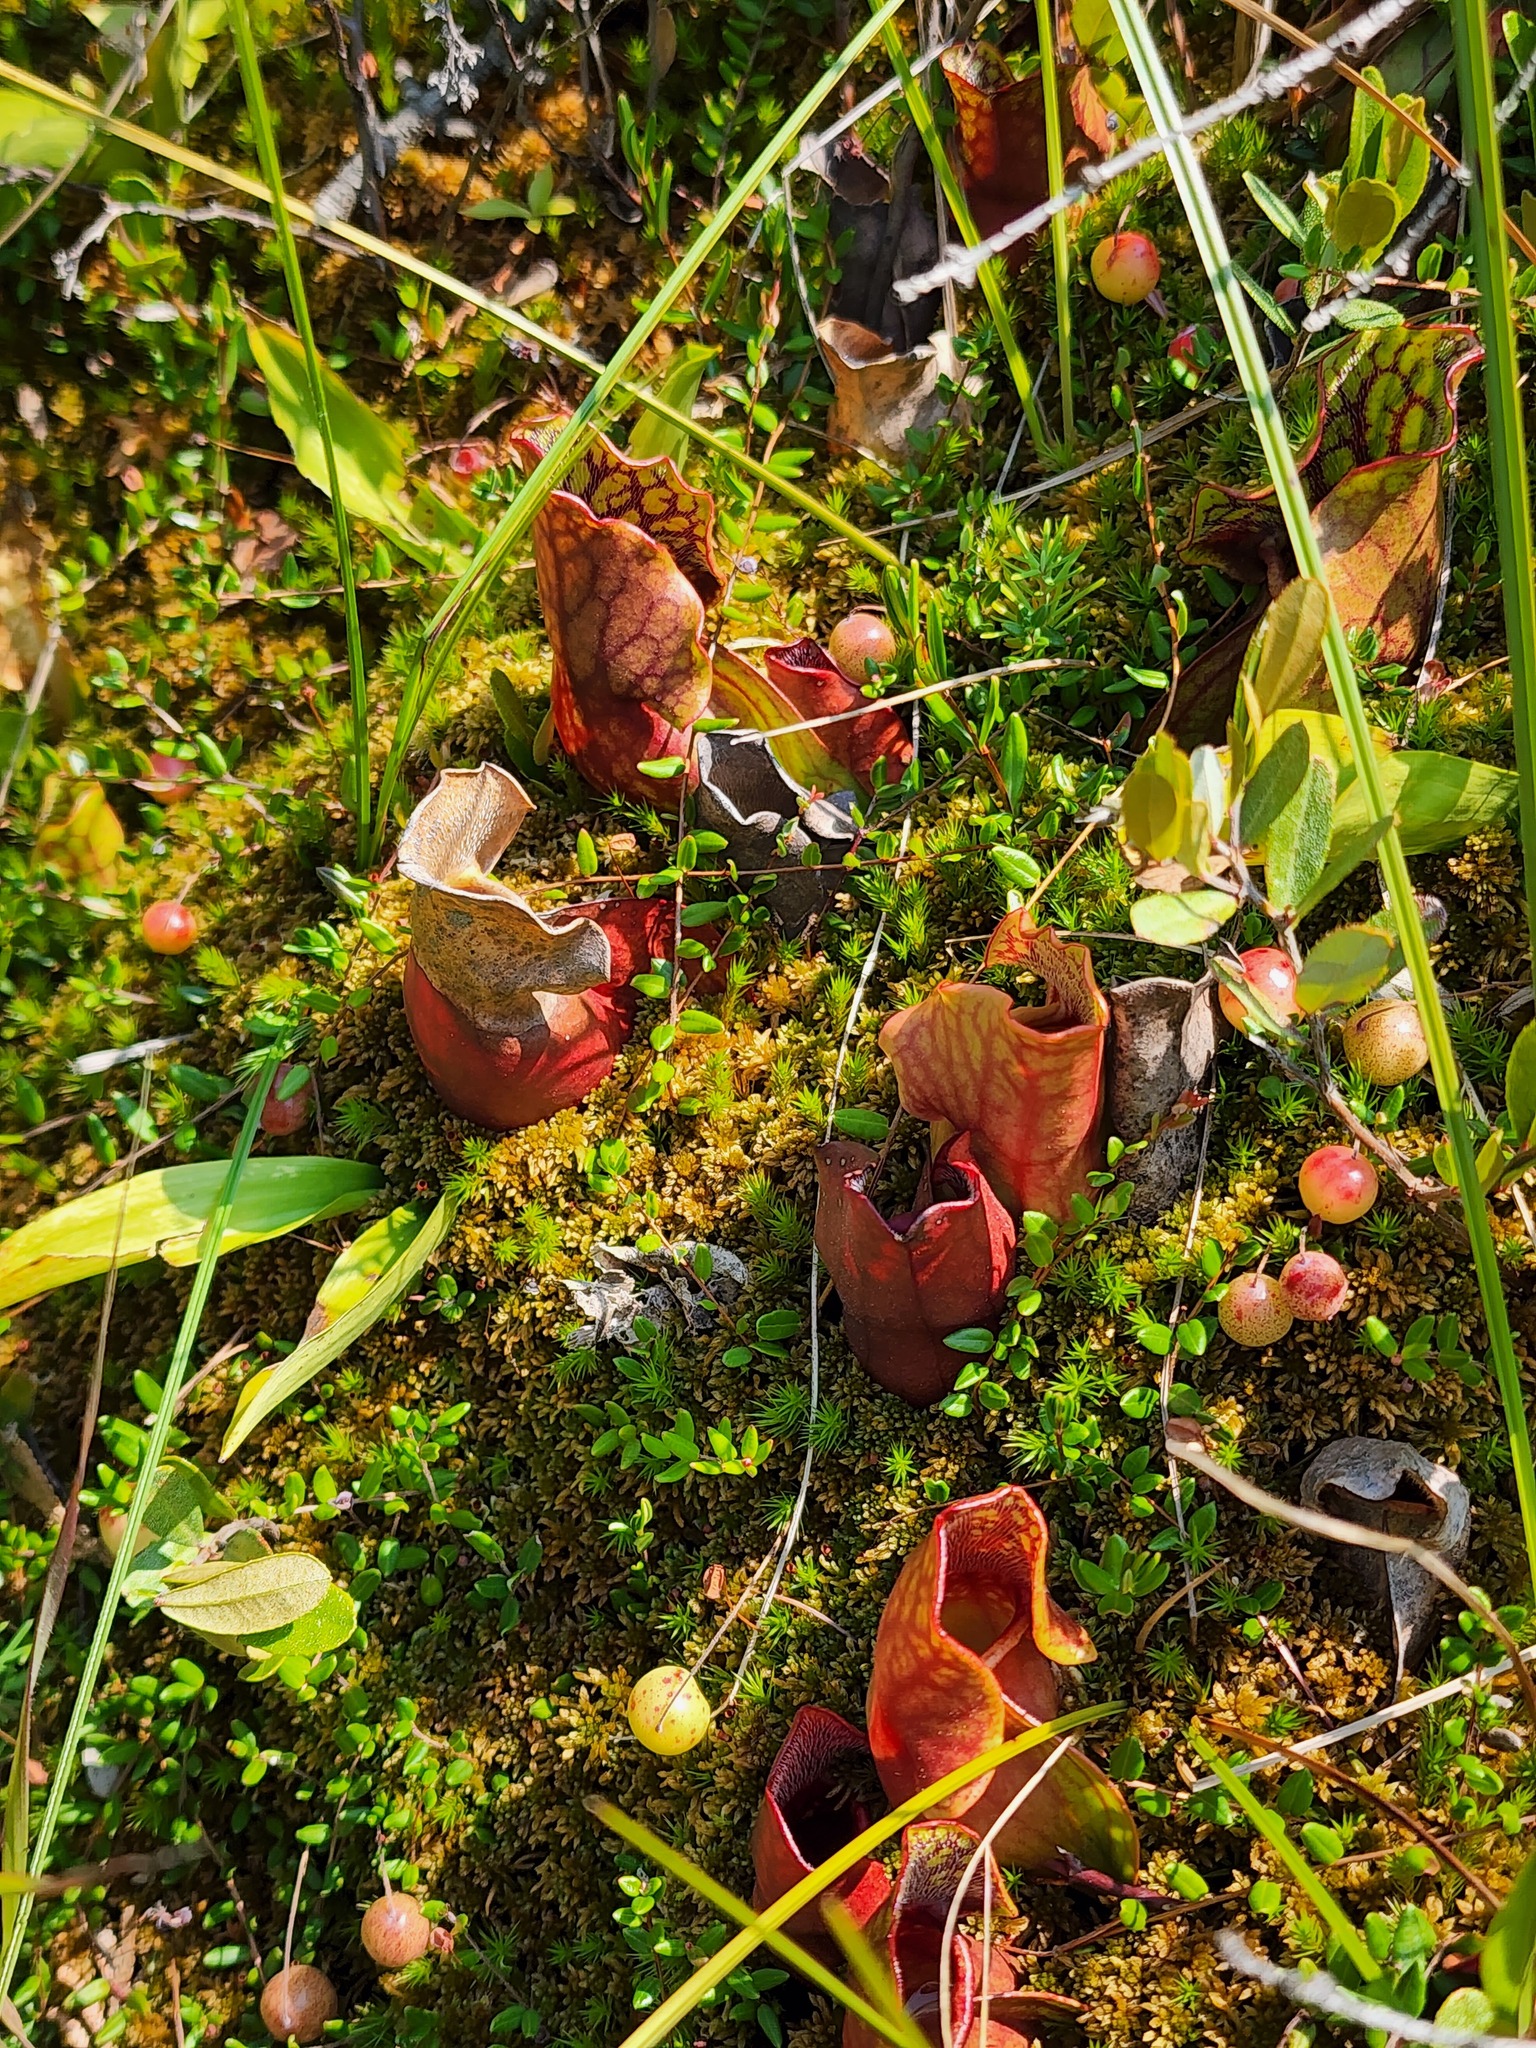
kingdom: Plantae
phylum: Tracheophyta
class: Magnoliopsida
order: Ericales
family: Sarraceniaceae
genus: Sarracenia
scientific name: Sarracenia purpurea
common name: Pitcherplant
